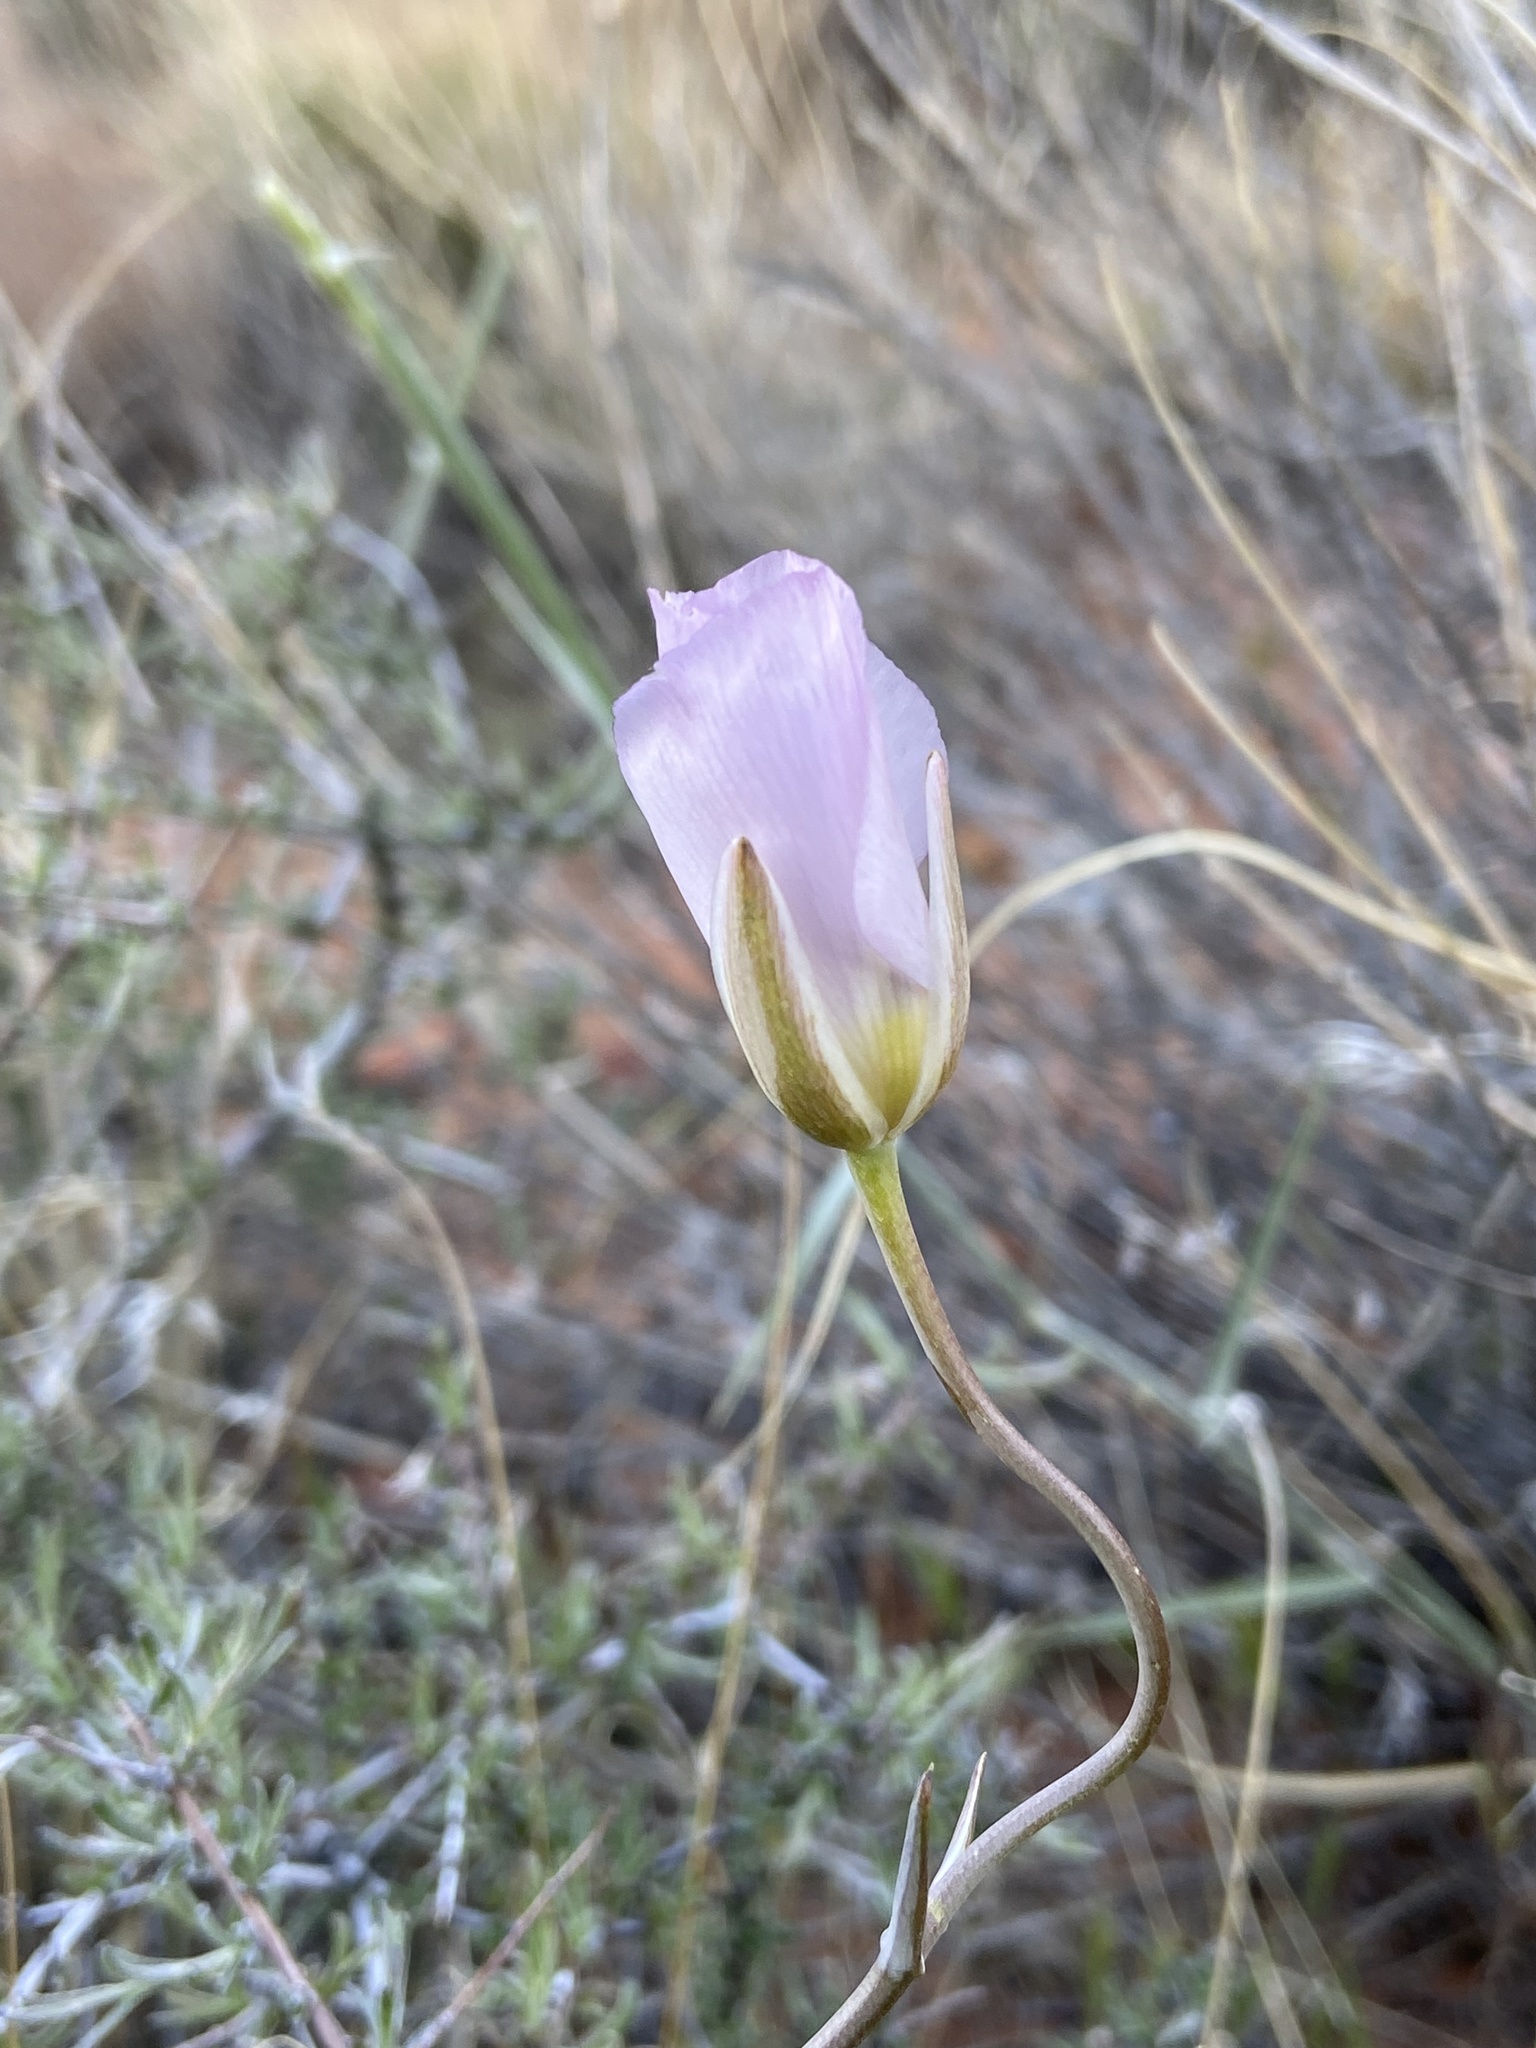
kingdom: Plantae
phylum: Tracheophyta
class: Liliopsida
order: Liliales
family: Liliaceae
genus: Calochortus
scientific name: Calochortus flexuosus
